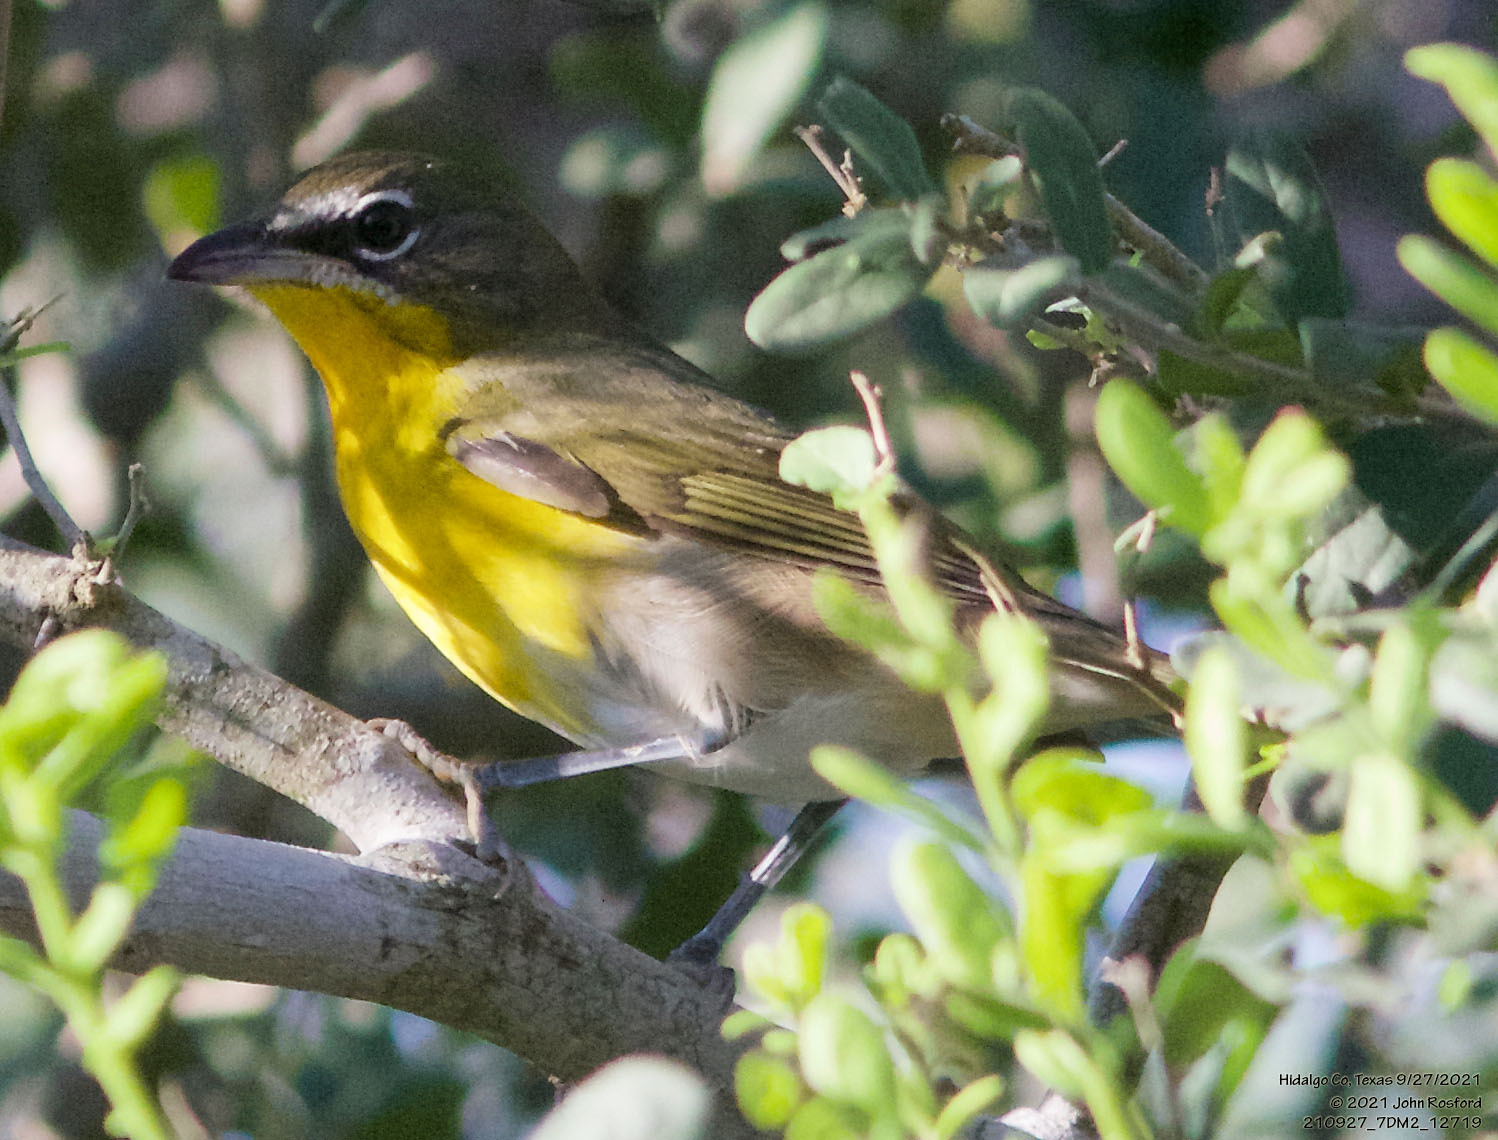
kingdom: Animalia
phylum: Chordata
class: Aves
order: Passeriformes
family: Parulidae
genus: Icteria
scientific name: Icteria virens
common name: Yellow-breasted chat
